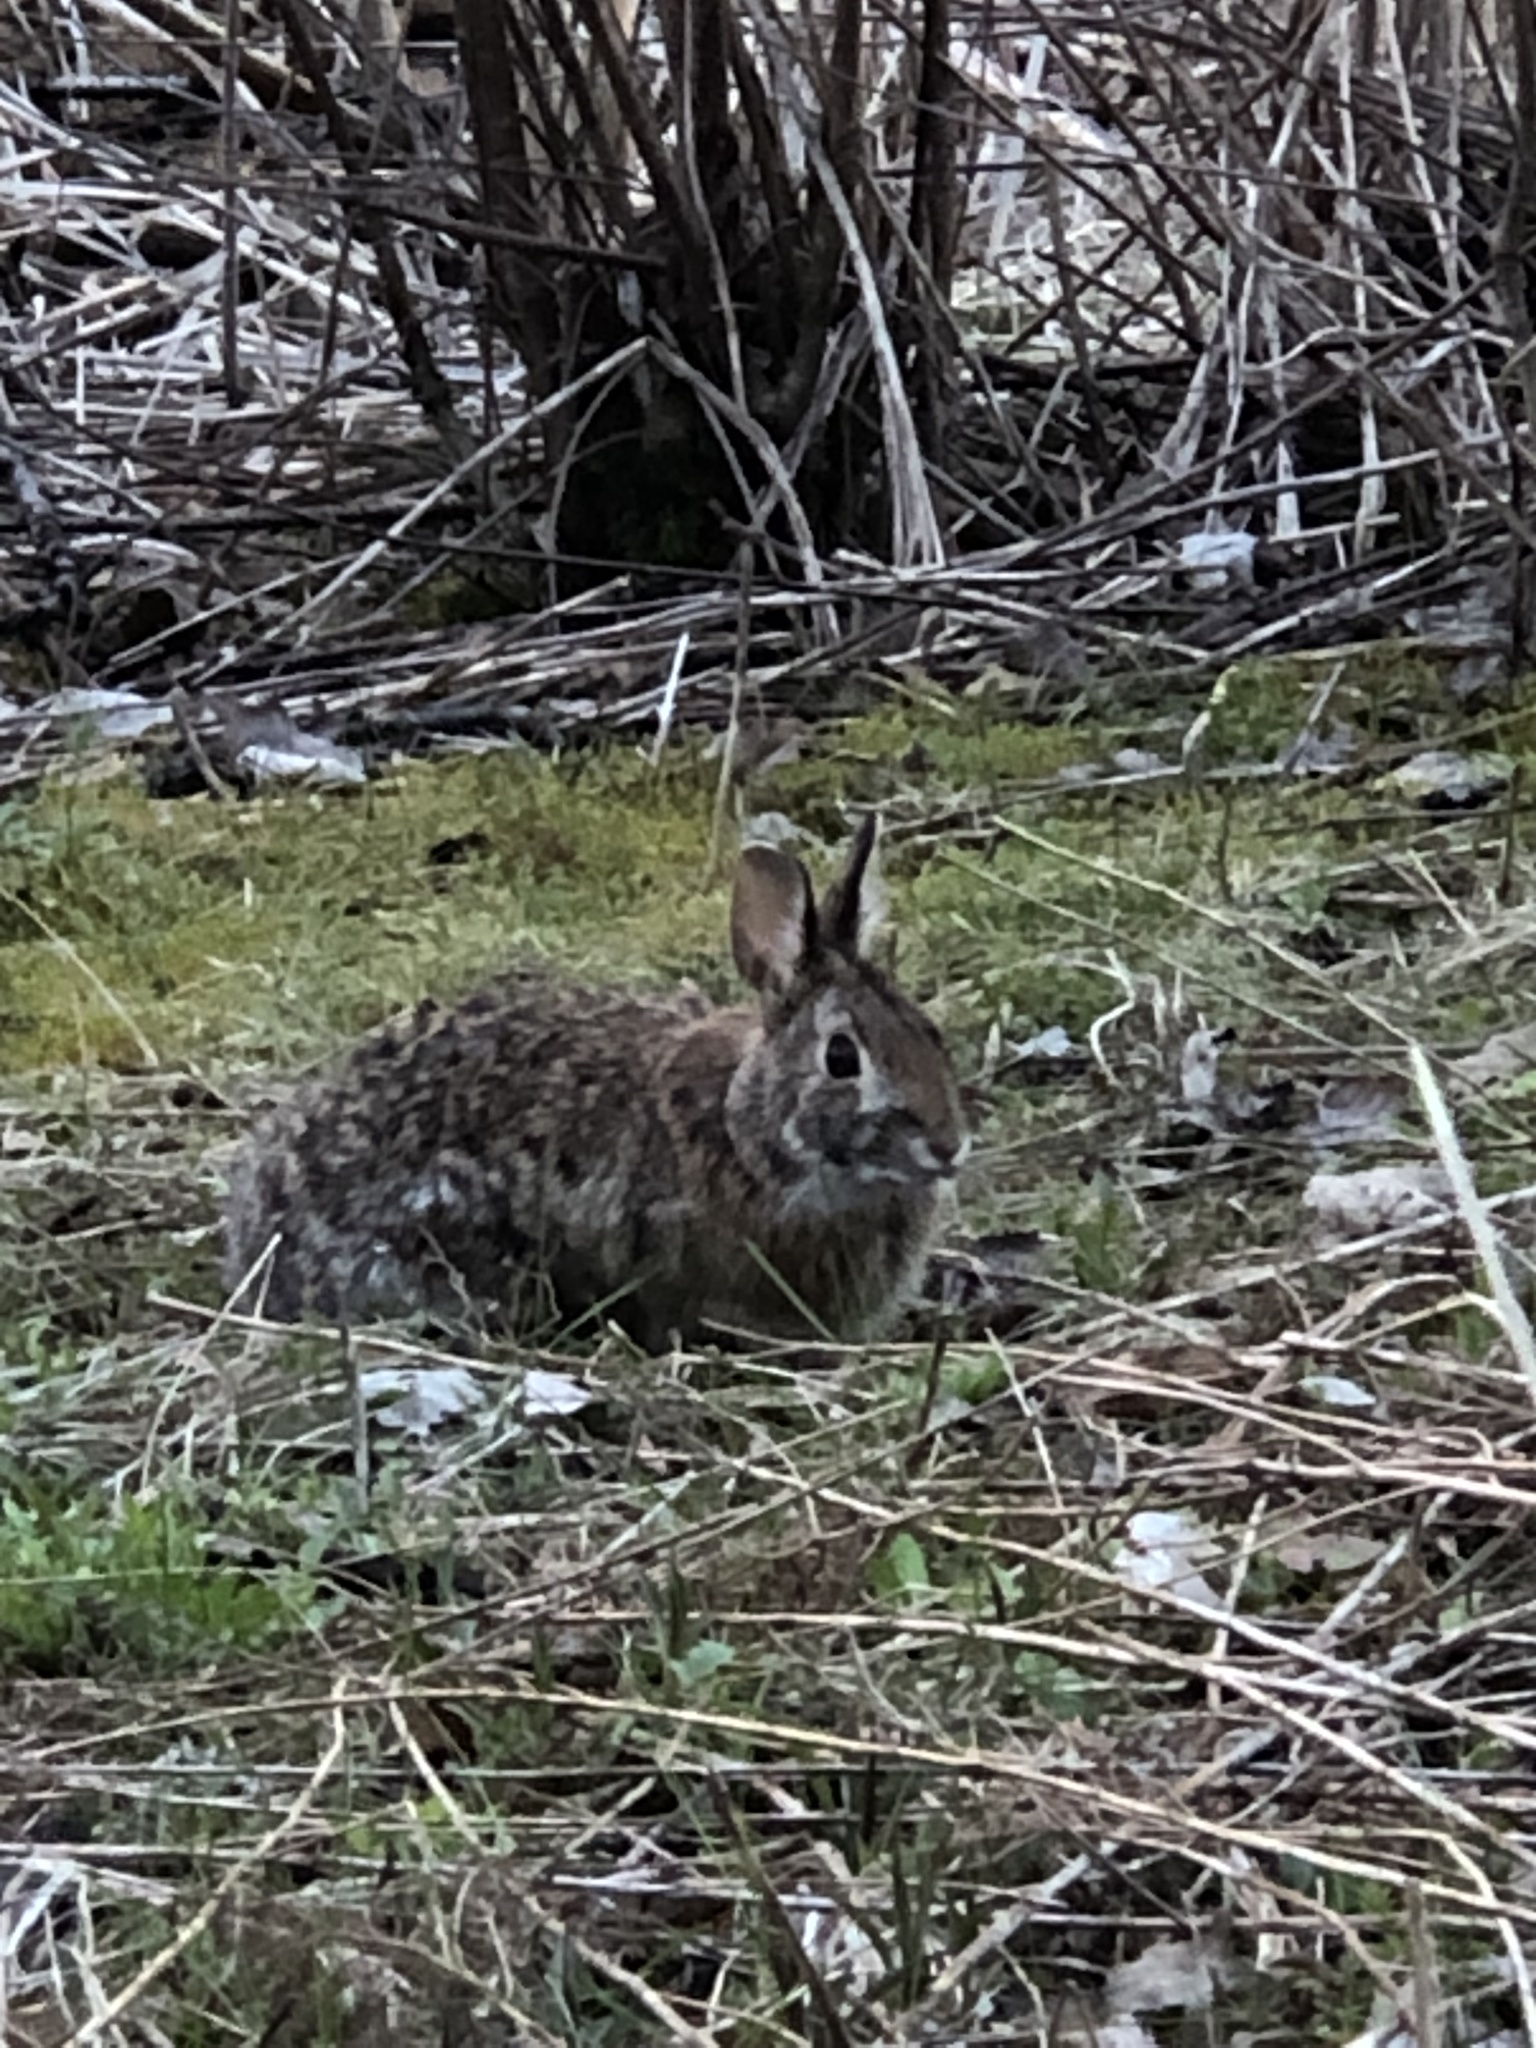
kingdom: Animalia
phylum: Chordata
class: Mammalia
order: Lagomorpha
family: Leporidae
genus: Sylvilagus
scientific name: Sylvilagus floridanus
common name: Eastern cottontail
